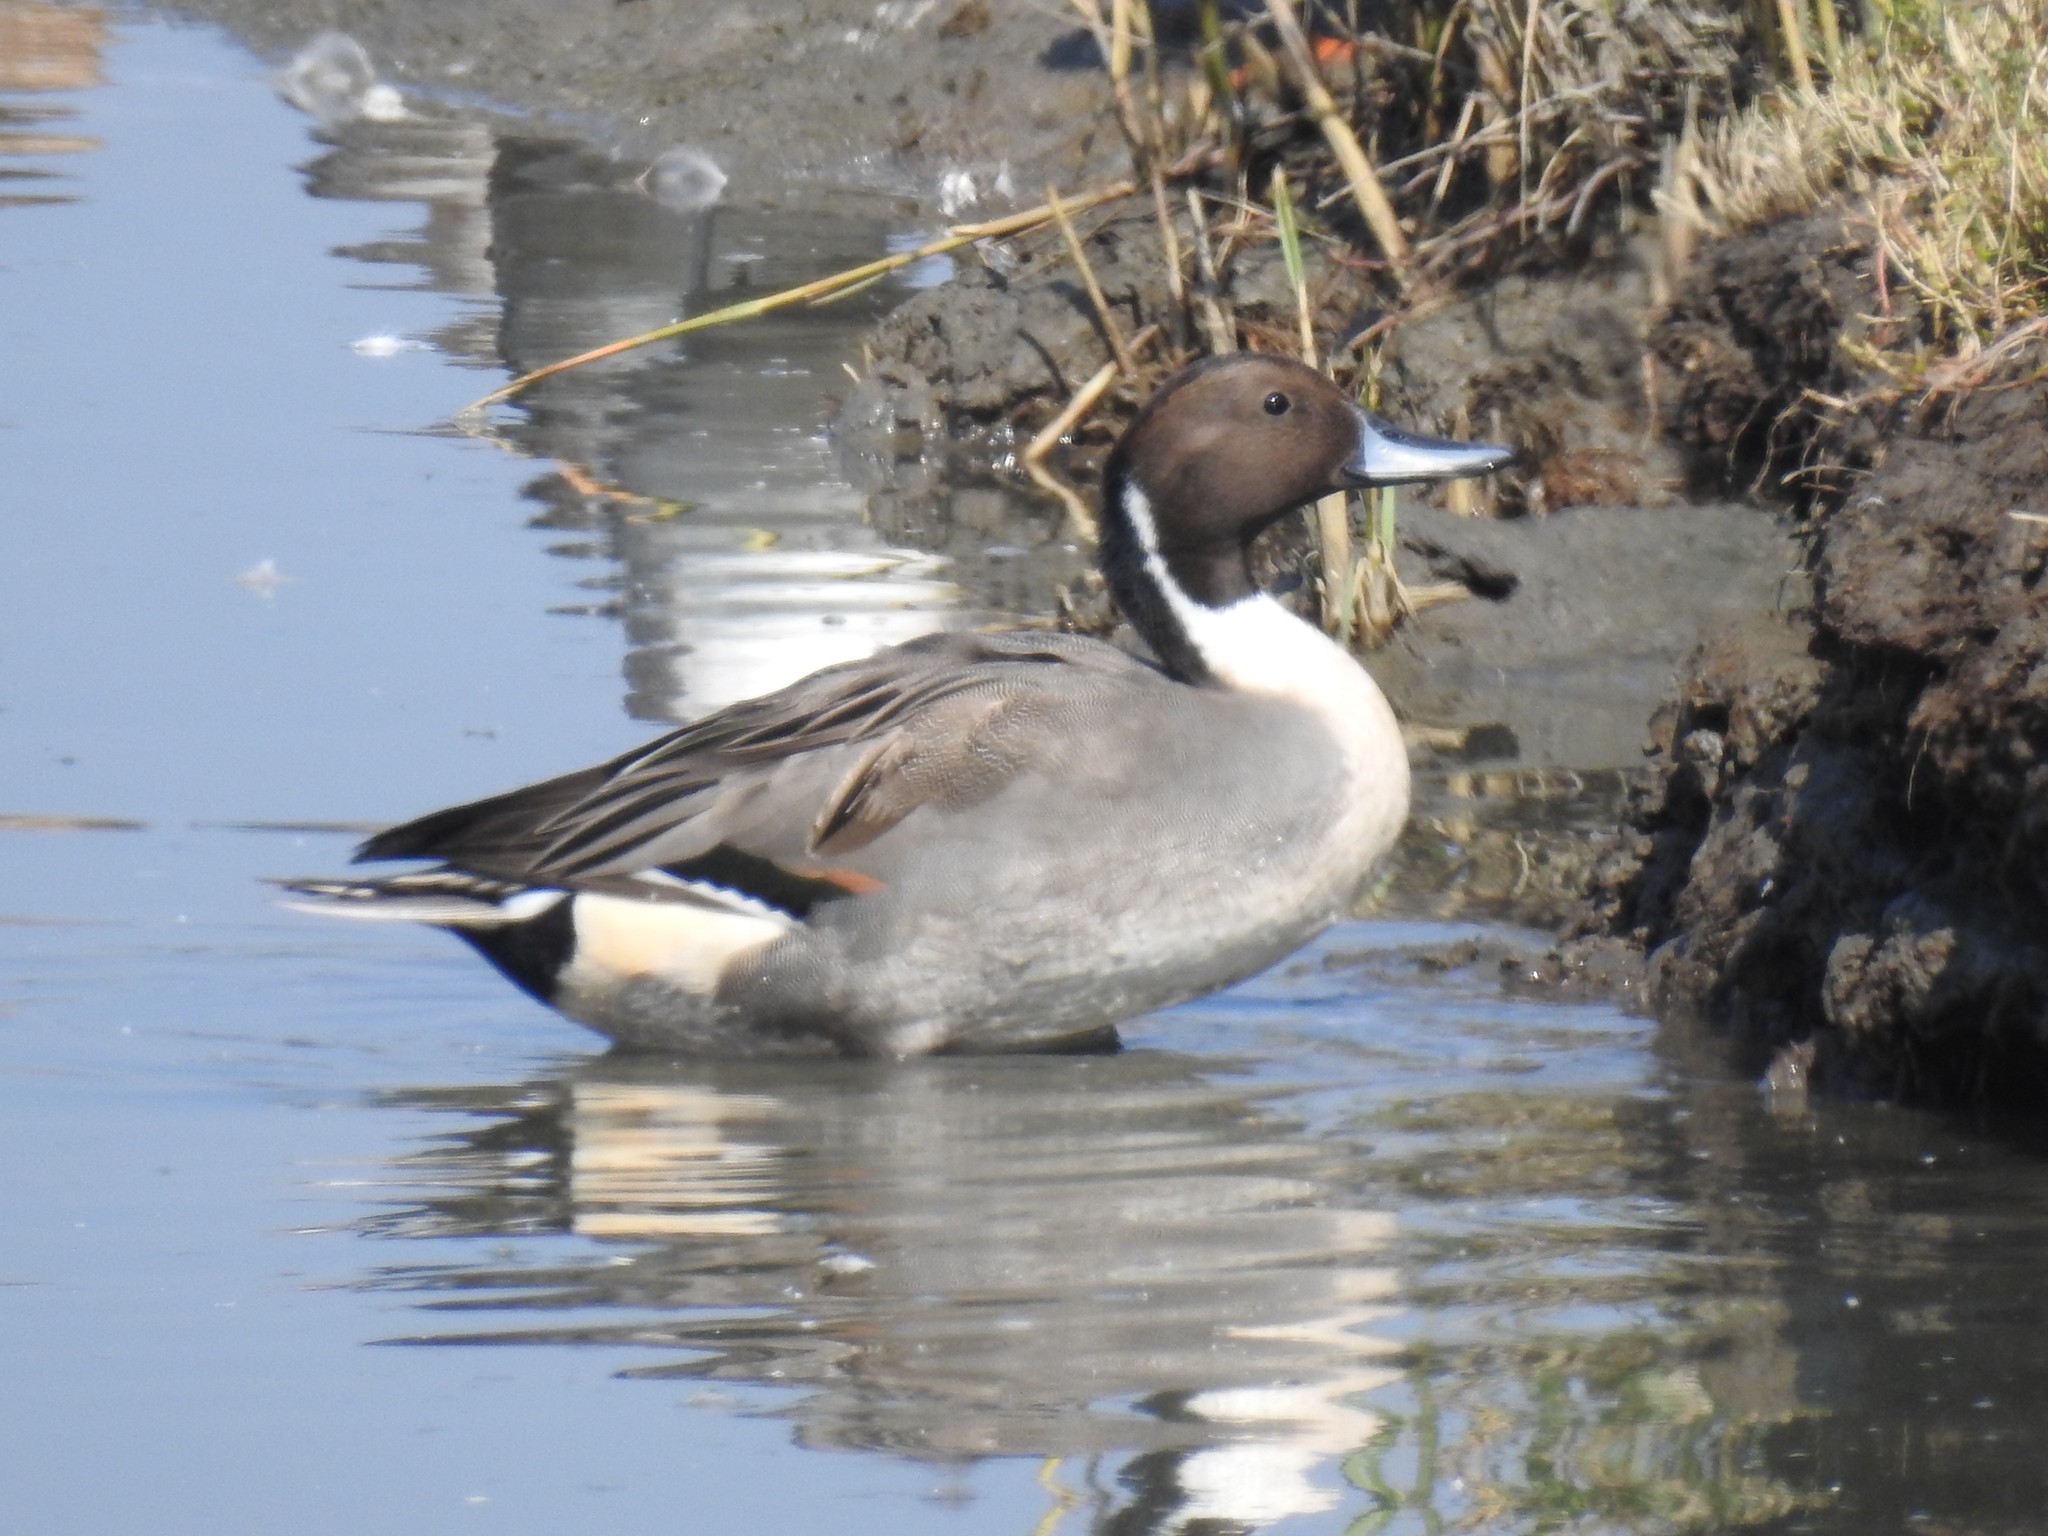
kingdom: Animalia
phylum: Chordata
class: Aves
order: Anseriformes
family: Anatidae
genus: Anas
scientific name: Anas acuta
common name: Northern pintail
